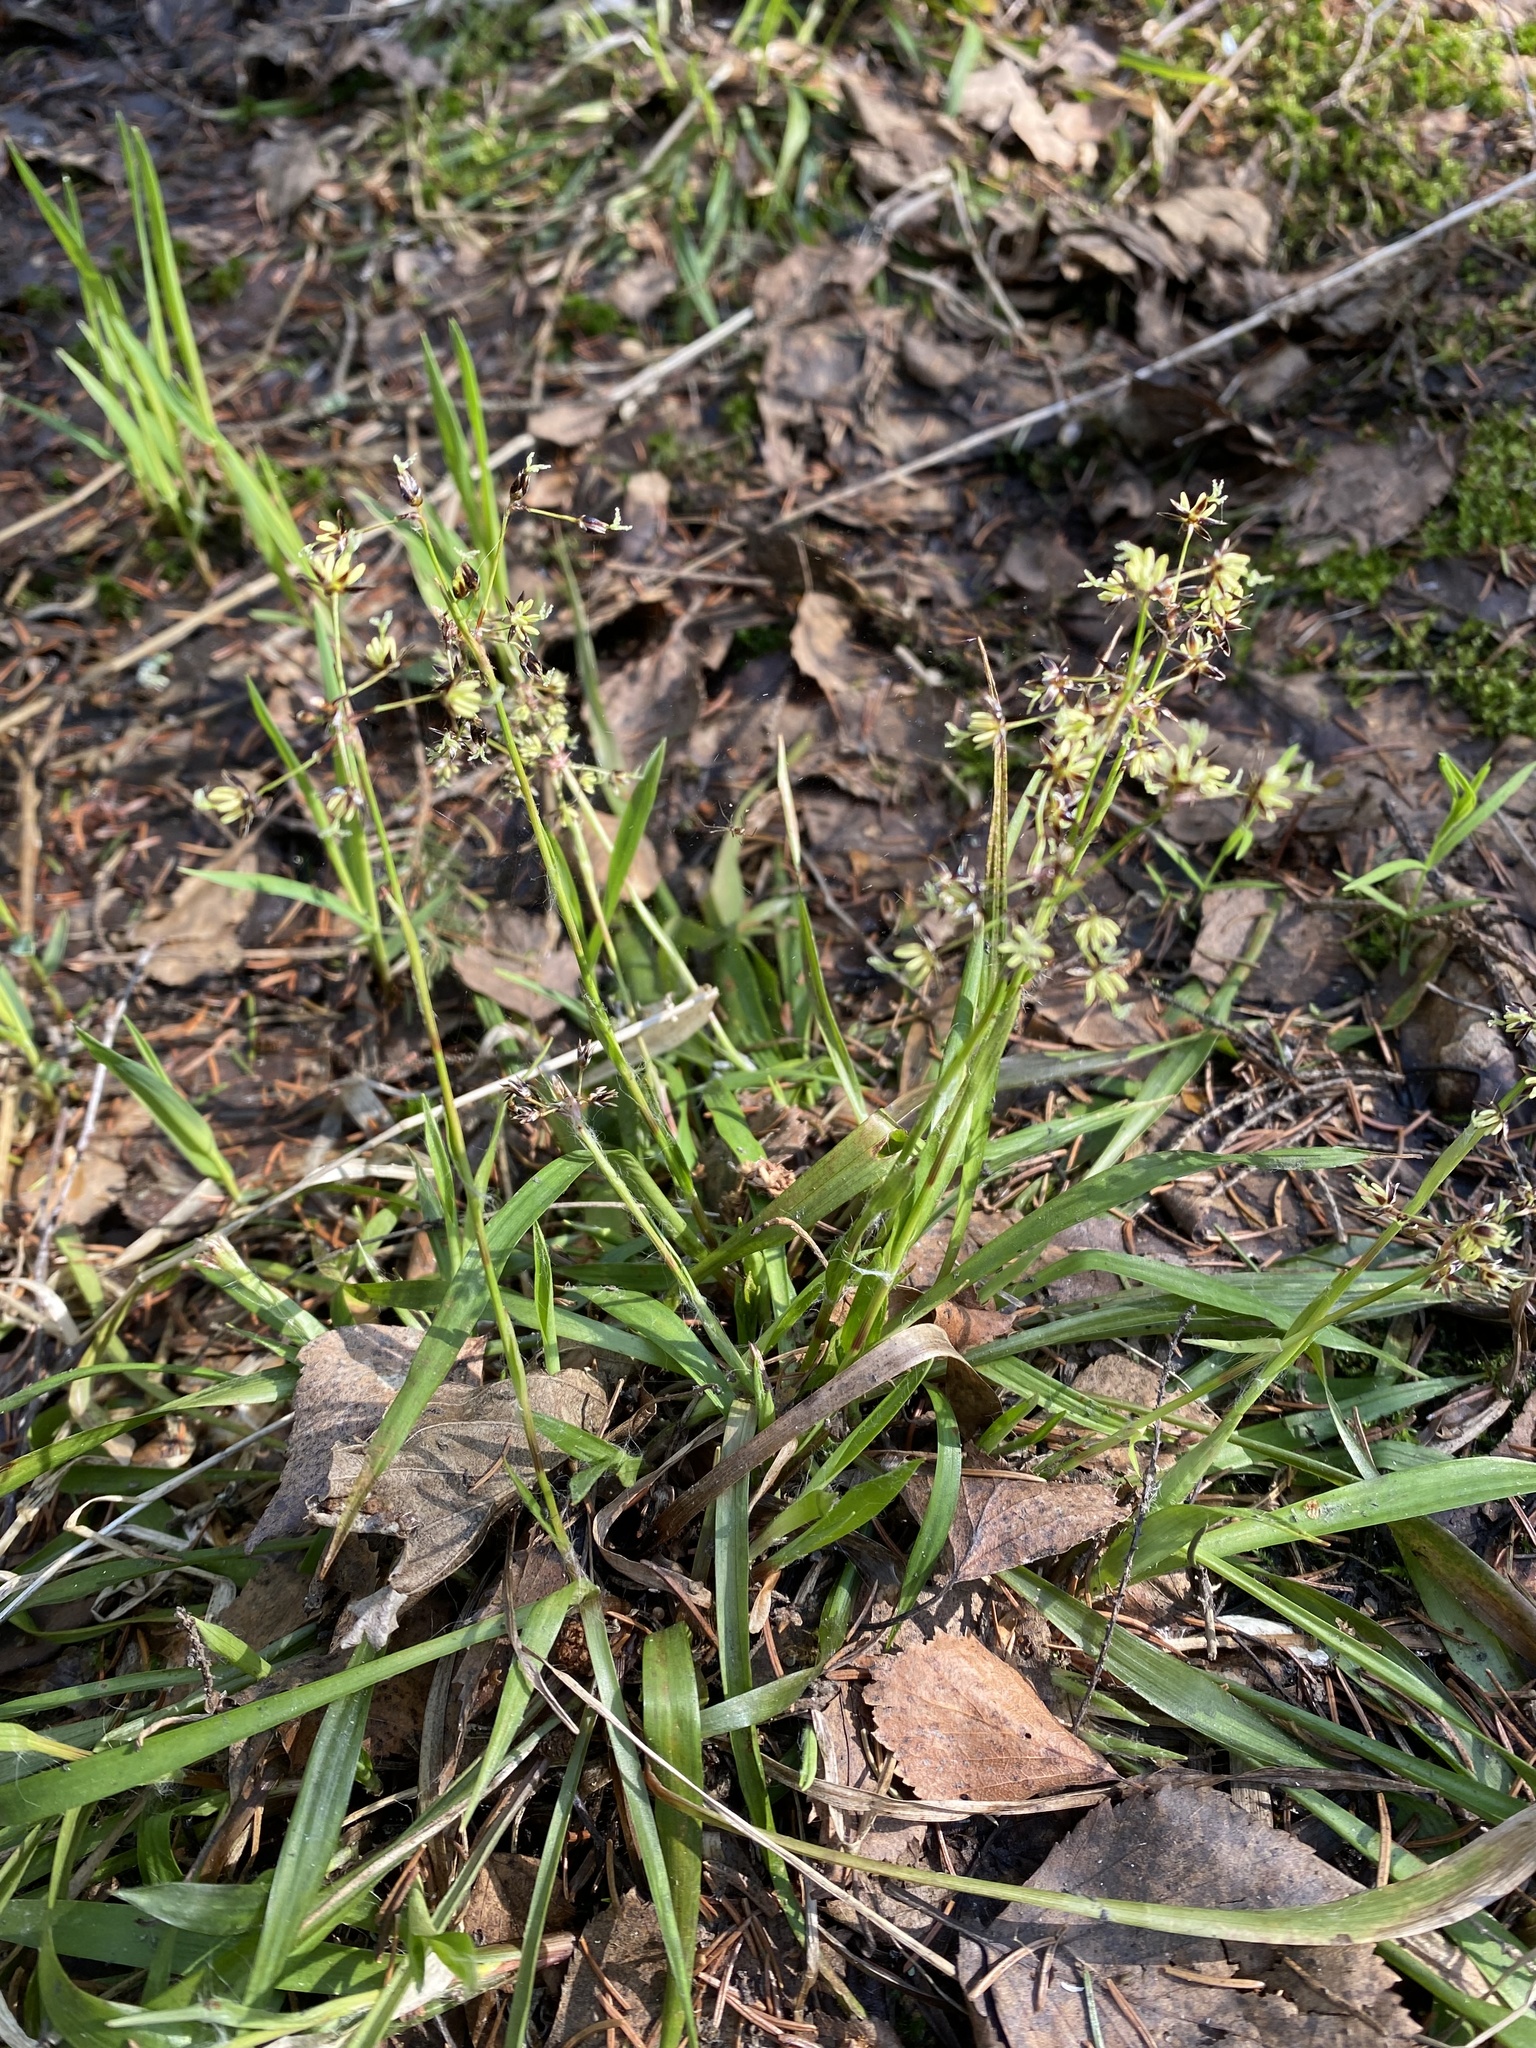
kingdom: Plantae
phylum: Tracheophyta
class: Liliopsida
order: Poales
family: Juncaceae
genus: Luzula
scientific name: Luzula pilosa
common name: Hairy wood-rush
